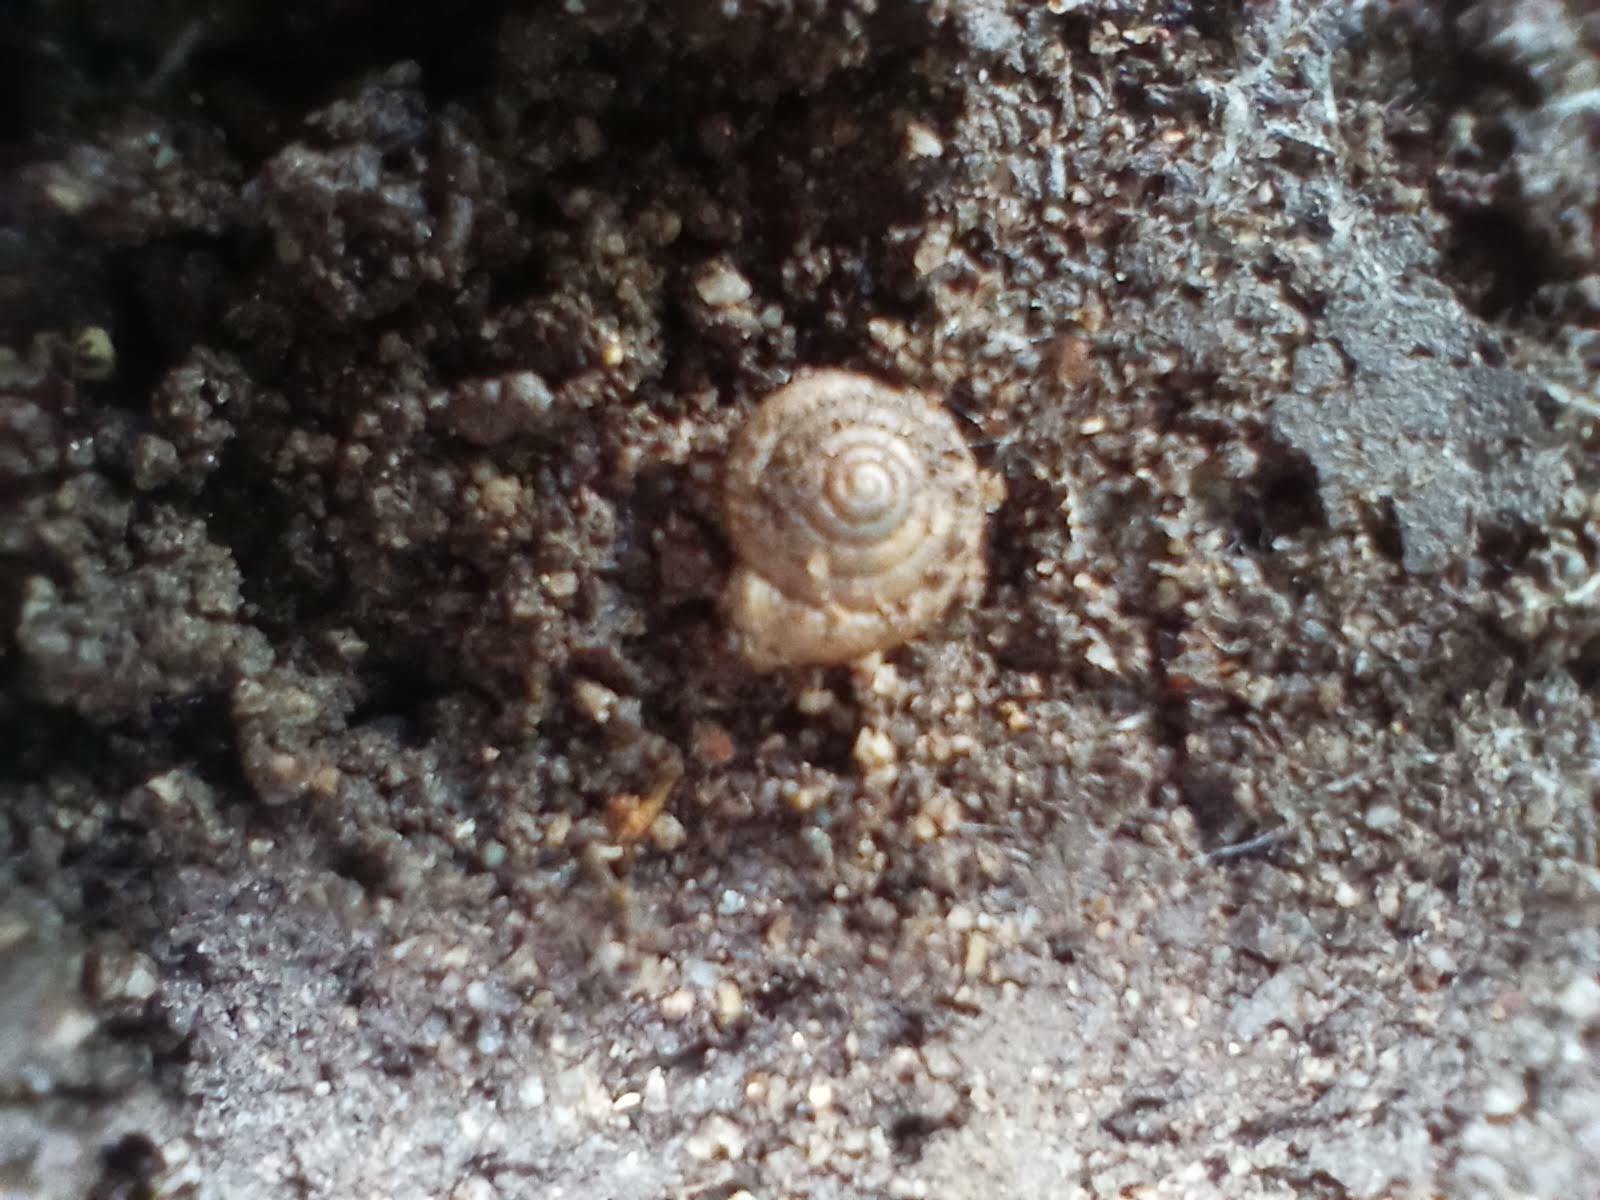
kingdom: Animalia
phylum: Mollusca
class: Gastropoda
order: Stylommatophora
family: Polygyridae
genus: Polygyra
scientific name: Polygyra cereolus
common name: Southern flatcone snail
